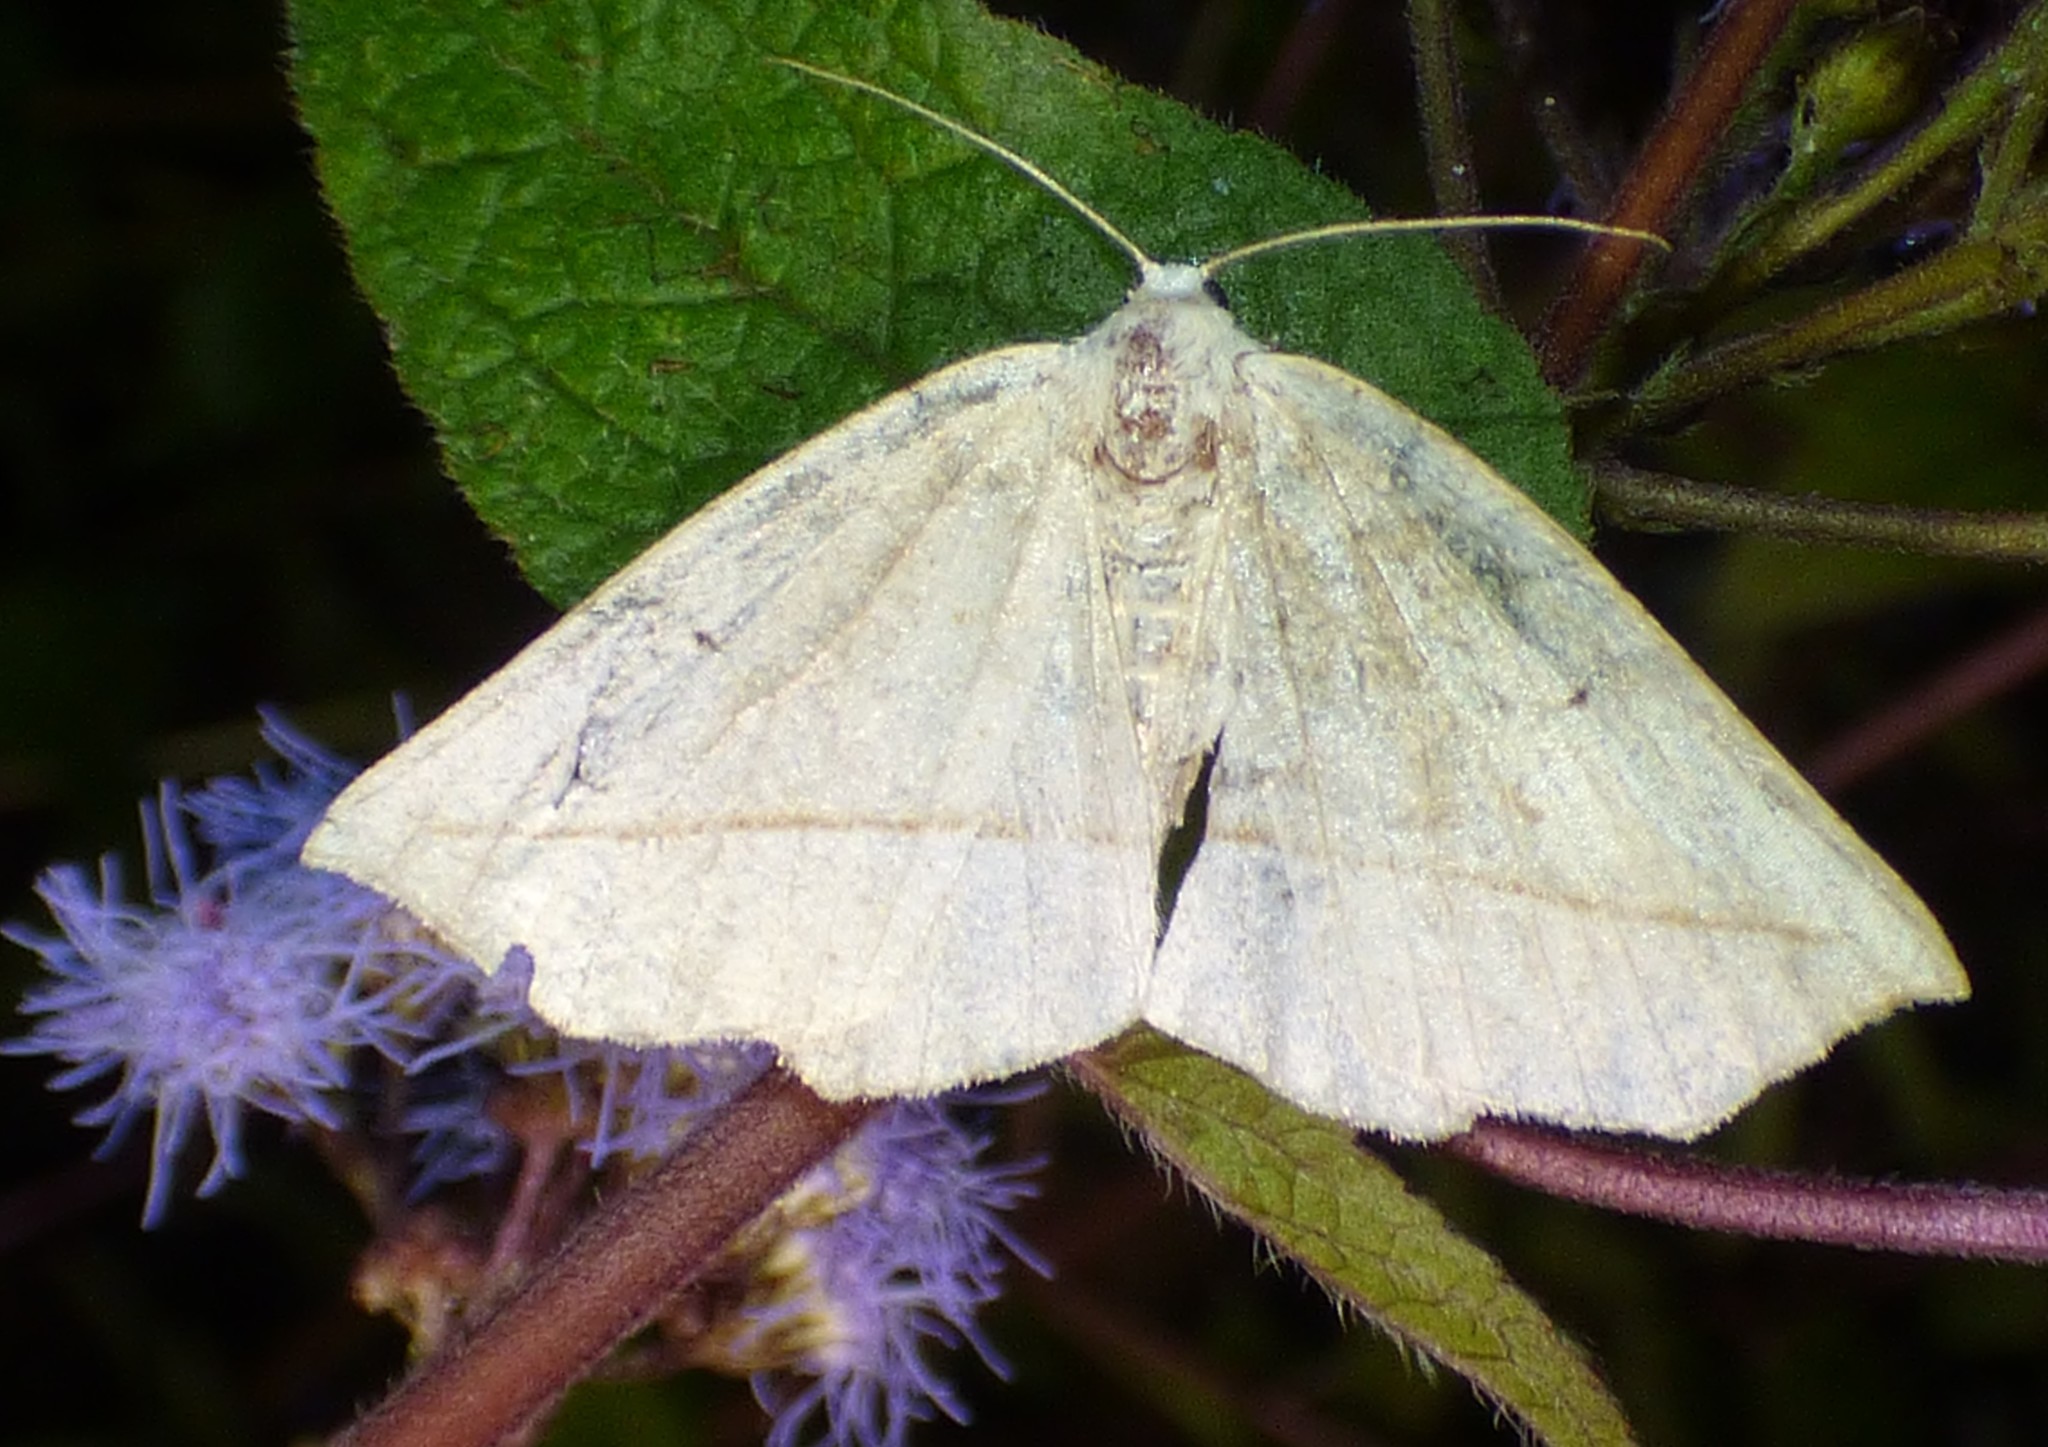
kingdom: Animalia
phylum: Arthropoda
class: Insecta
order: Lepidoptera
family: Geometridae
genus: Eusarca
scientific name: Eusarca confusaria
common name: Confused eusarca
